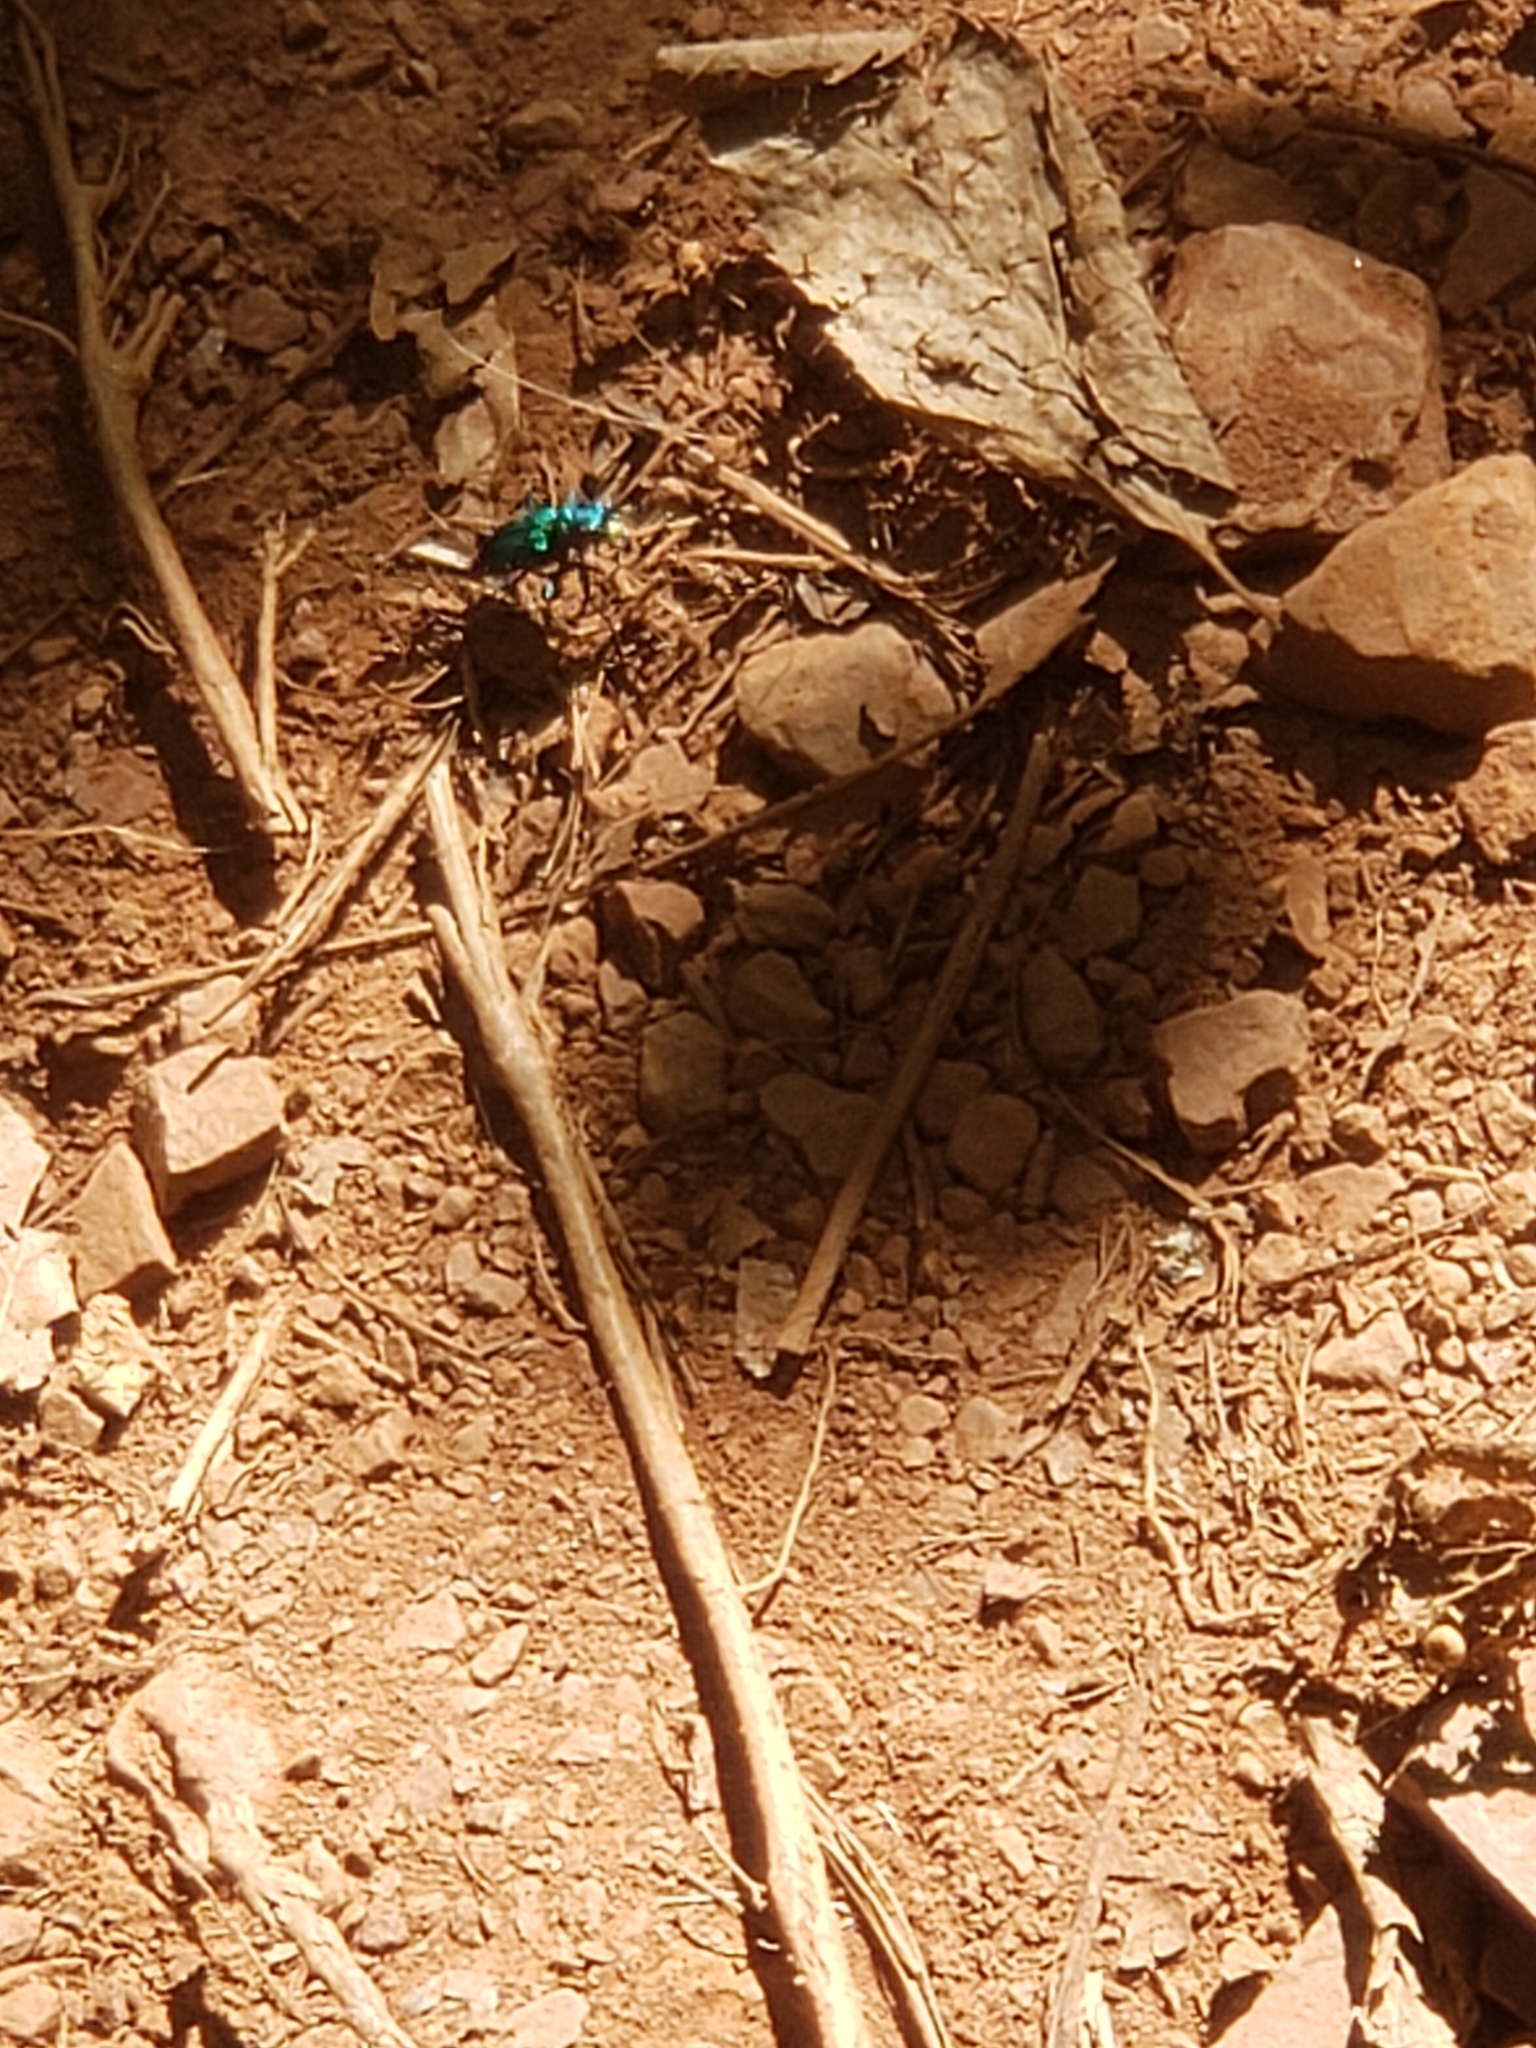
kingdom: Animalia
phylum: Arthropoda
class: Insecta
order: Coleoptera
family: Carabidae
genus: Cicindela
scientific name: Cicindela sexguttata
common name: Six-spotted tiger beetle
